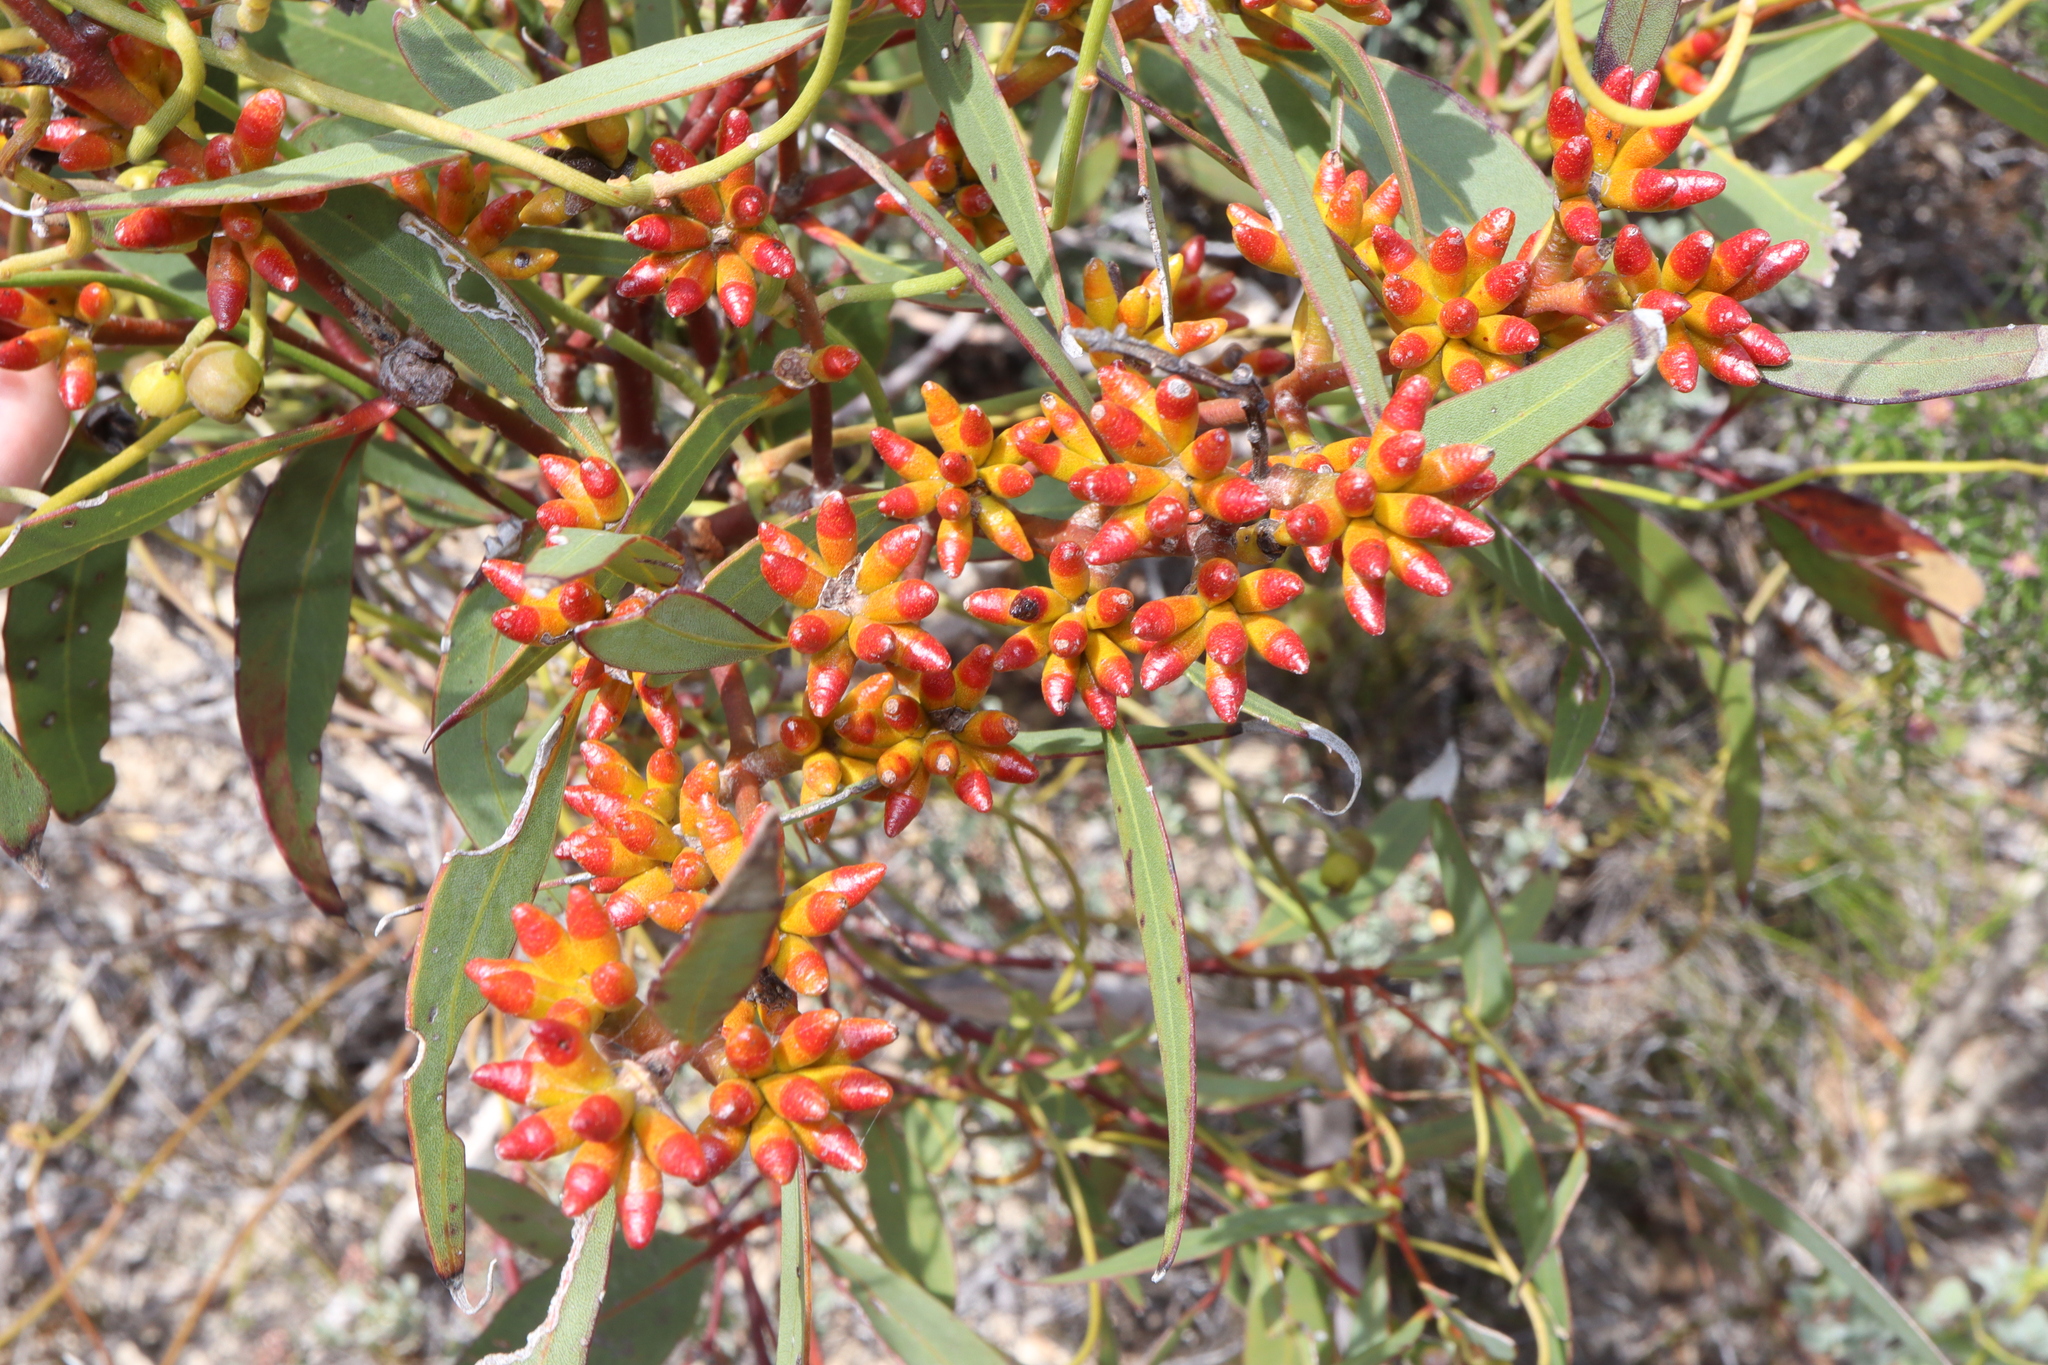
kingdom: Plantae
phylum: Tracheophyta
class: Magnoliopsida
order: Myrtales
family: Myrtaceae
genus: Eucalyptus
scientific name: Eucalyptus uncinata
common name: Hooked-leaved mallee
